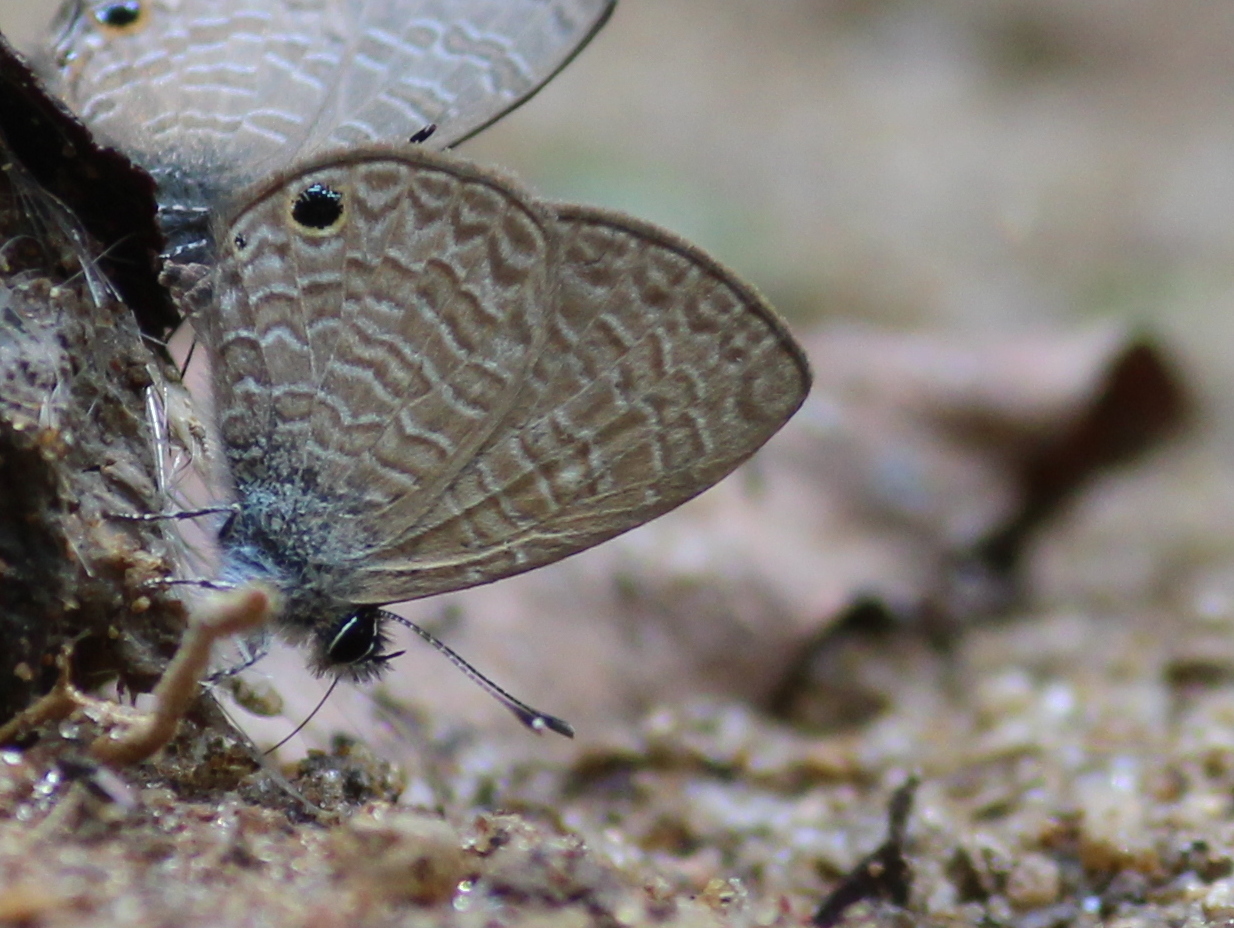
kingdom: Animalia
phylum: Arthropoda
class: Insecta
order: Lepidoptera
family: Lycaenidae
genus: Prosotas
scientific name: Prosotas dubiosa
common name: Tailless lineblue
